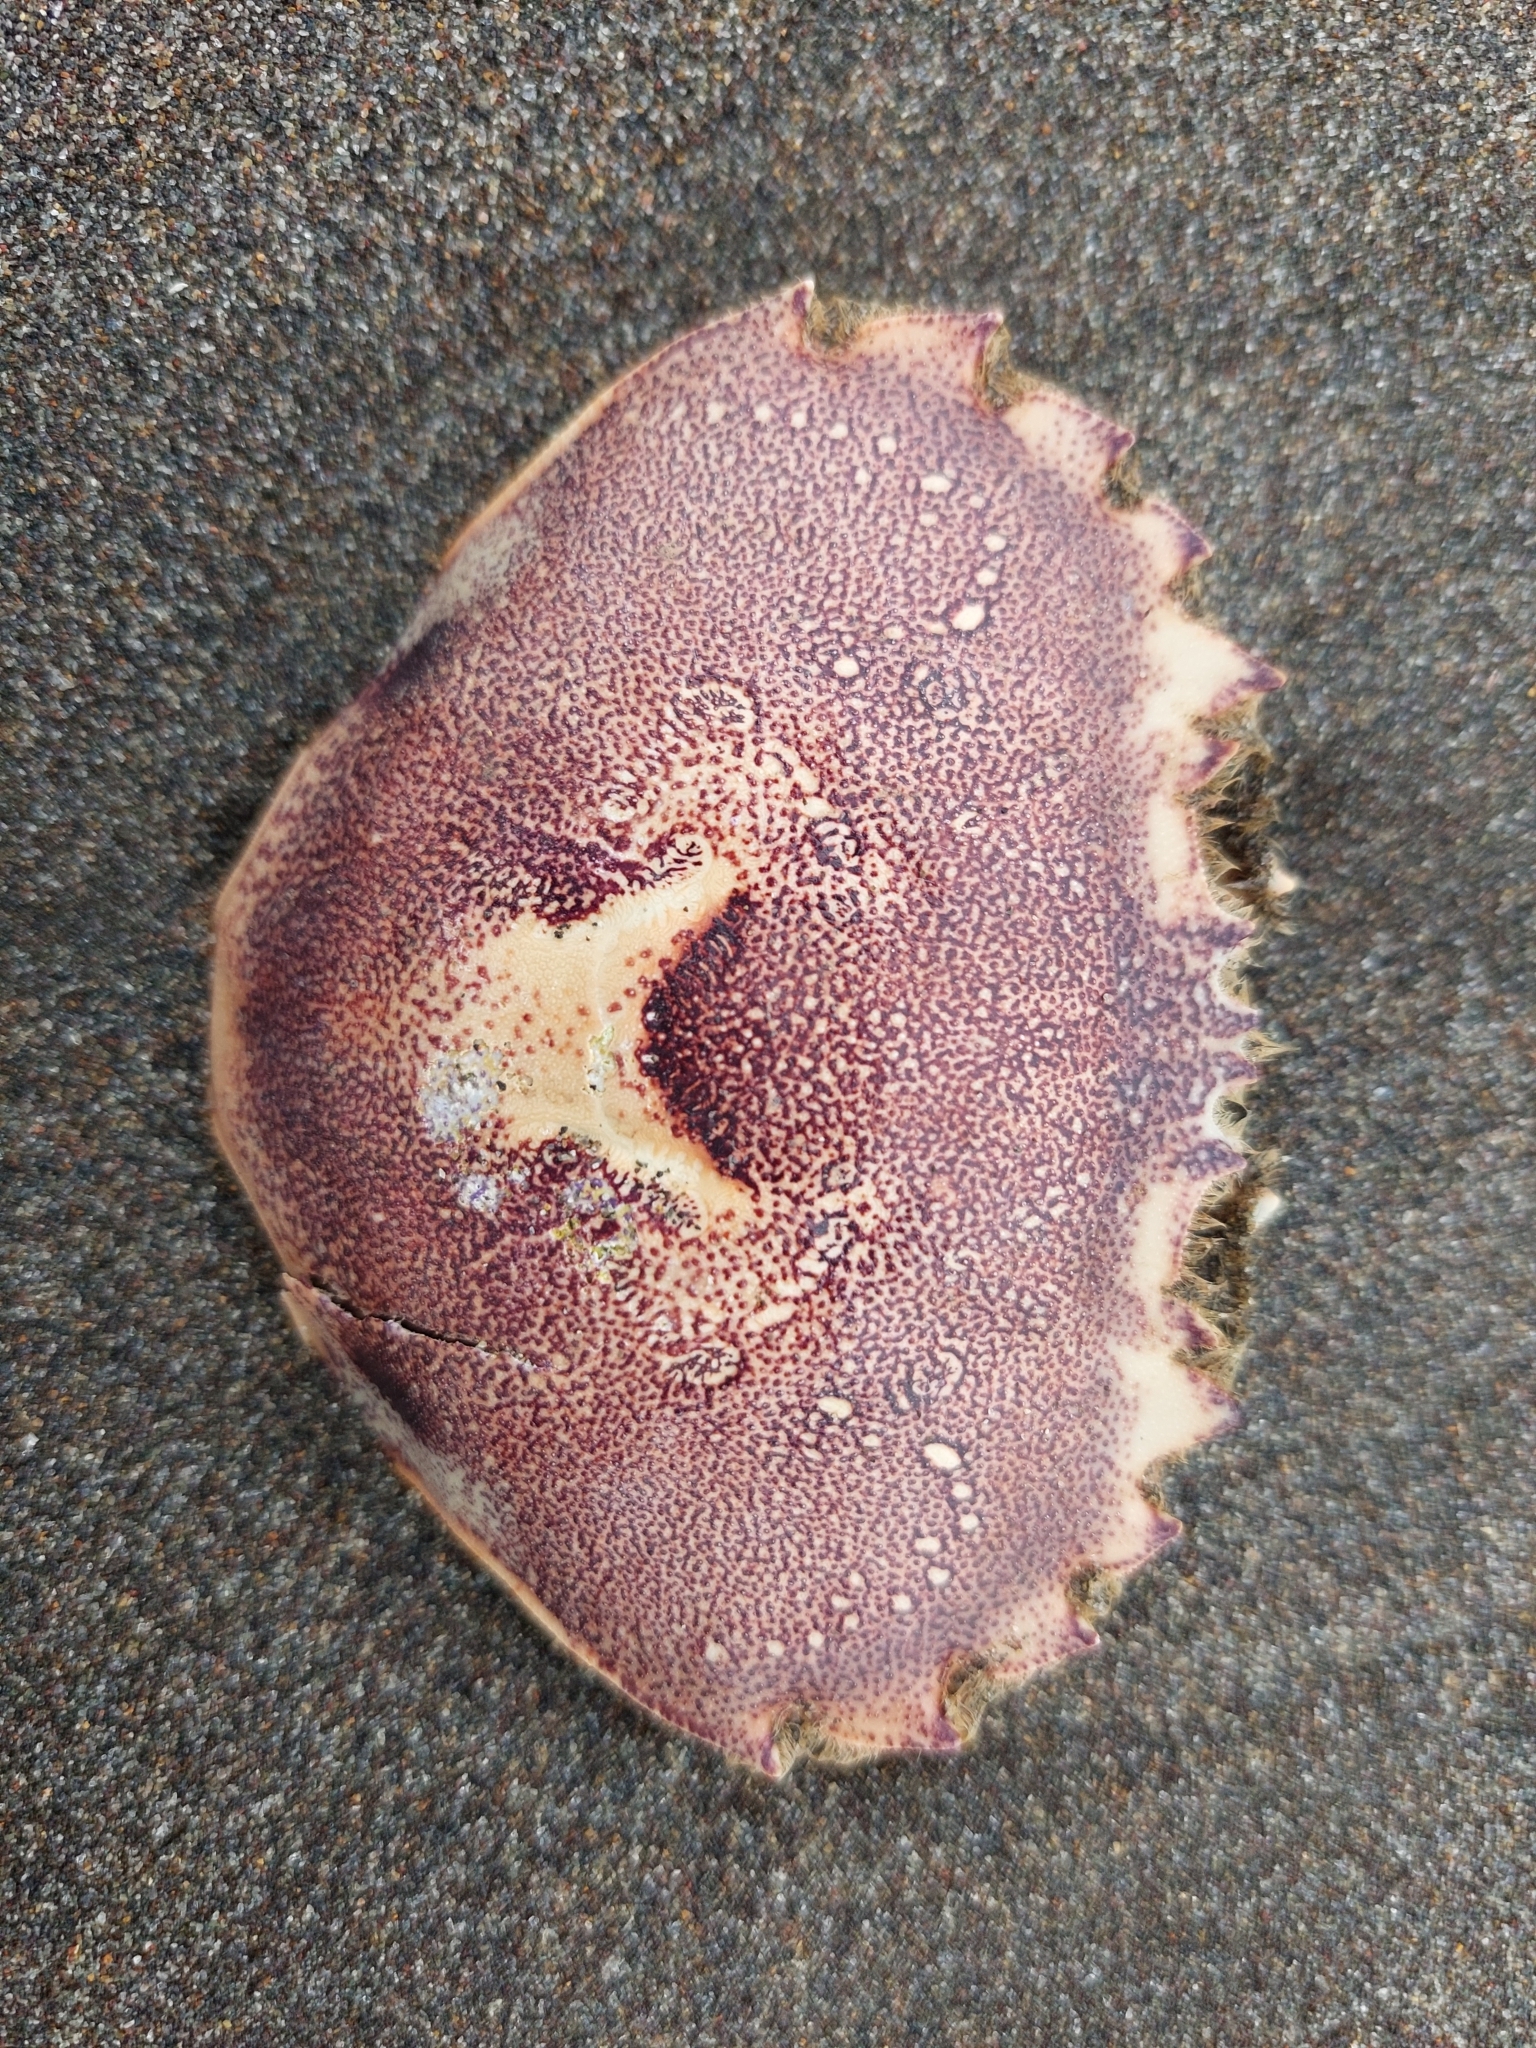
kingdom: Animalia
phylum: Arthropoda
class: Malacostraca
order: Decapoda
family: Ovalipidae
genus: Ovalipes
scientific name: Ovalipes trimaculatus
